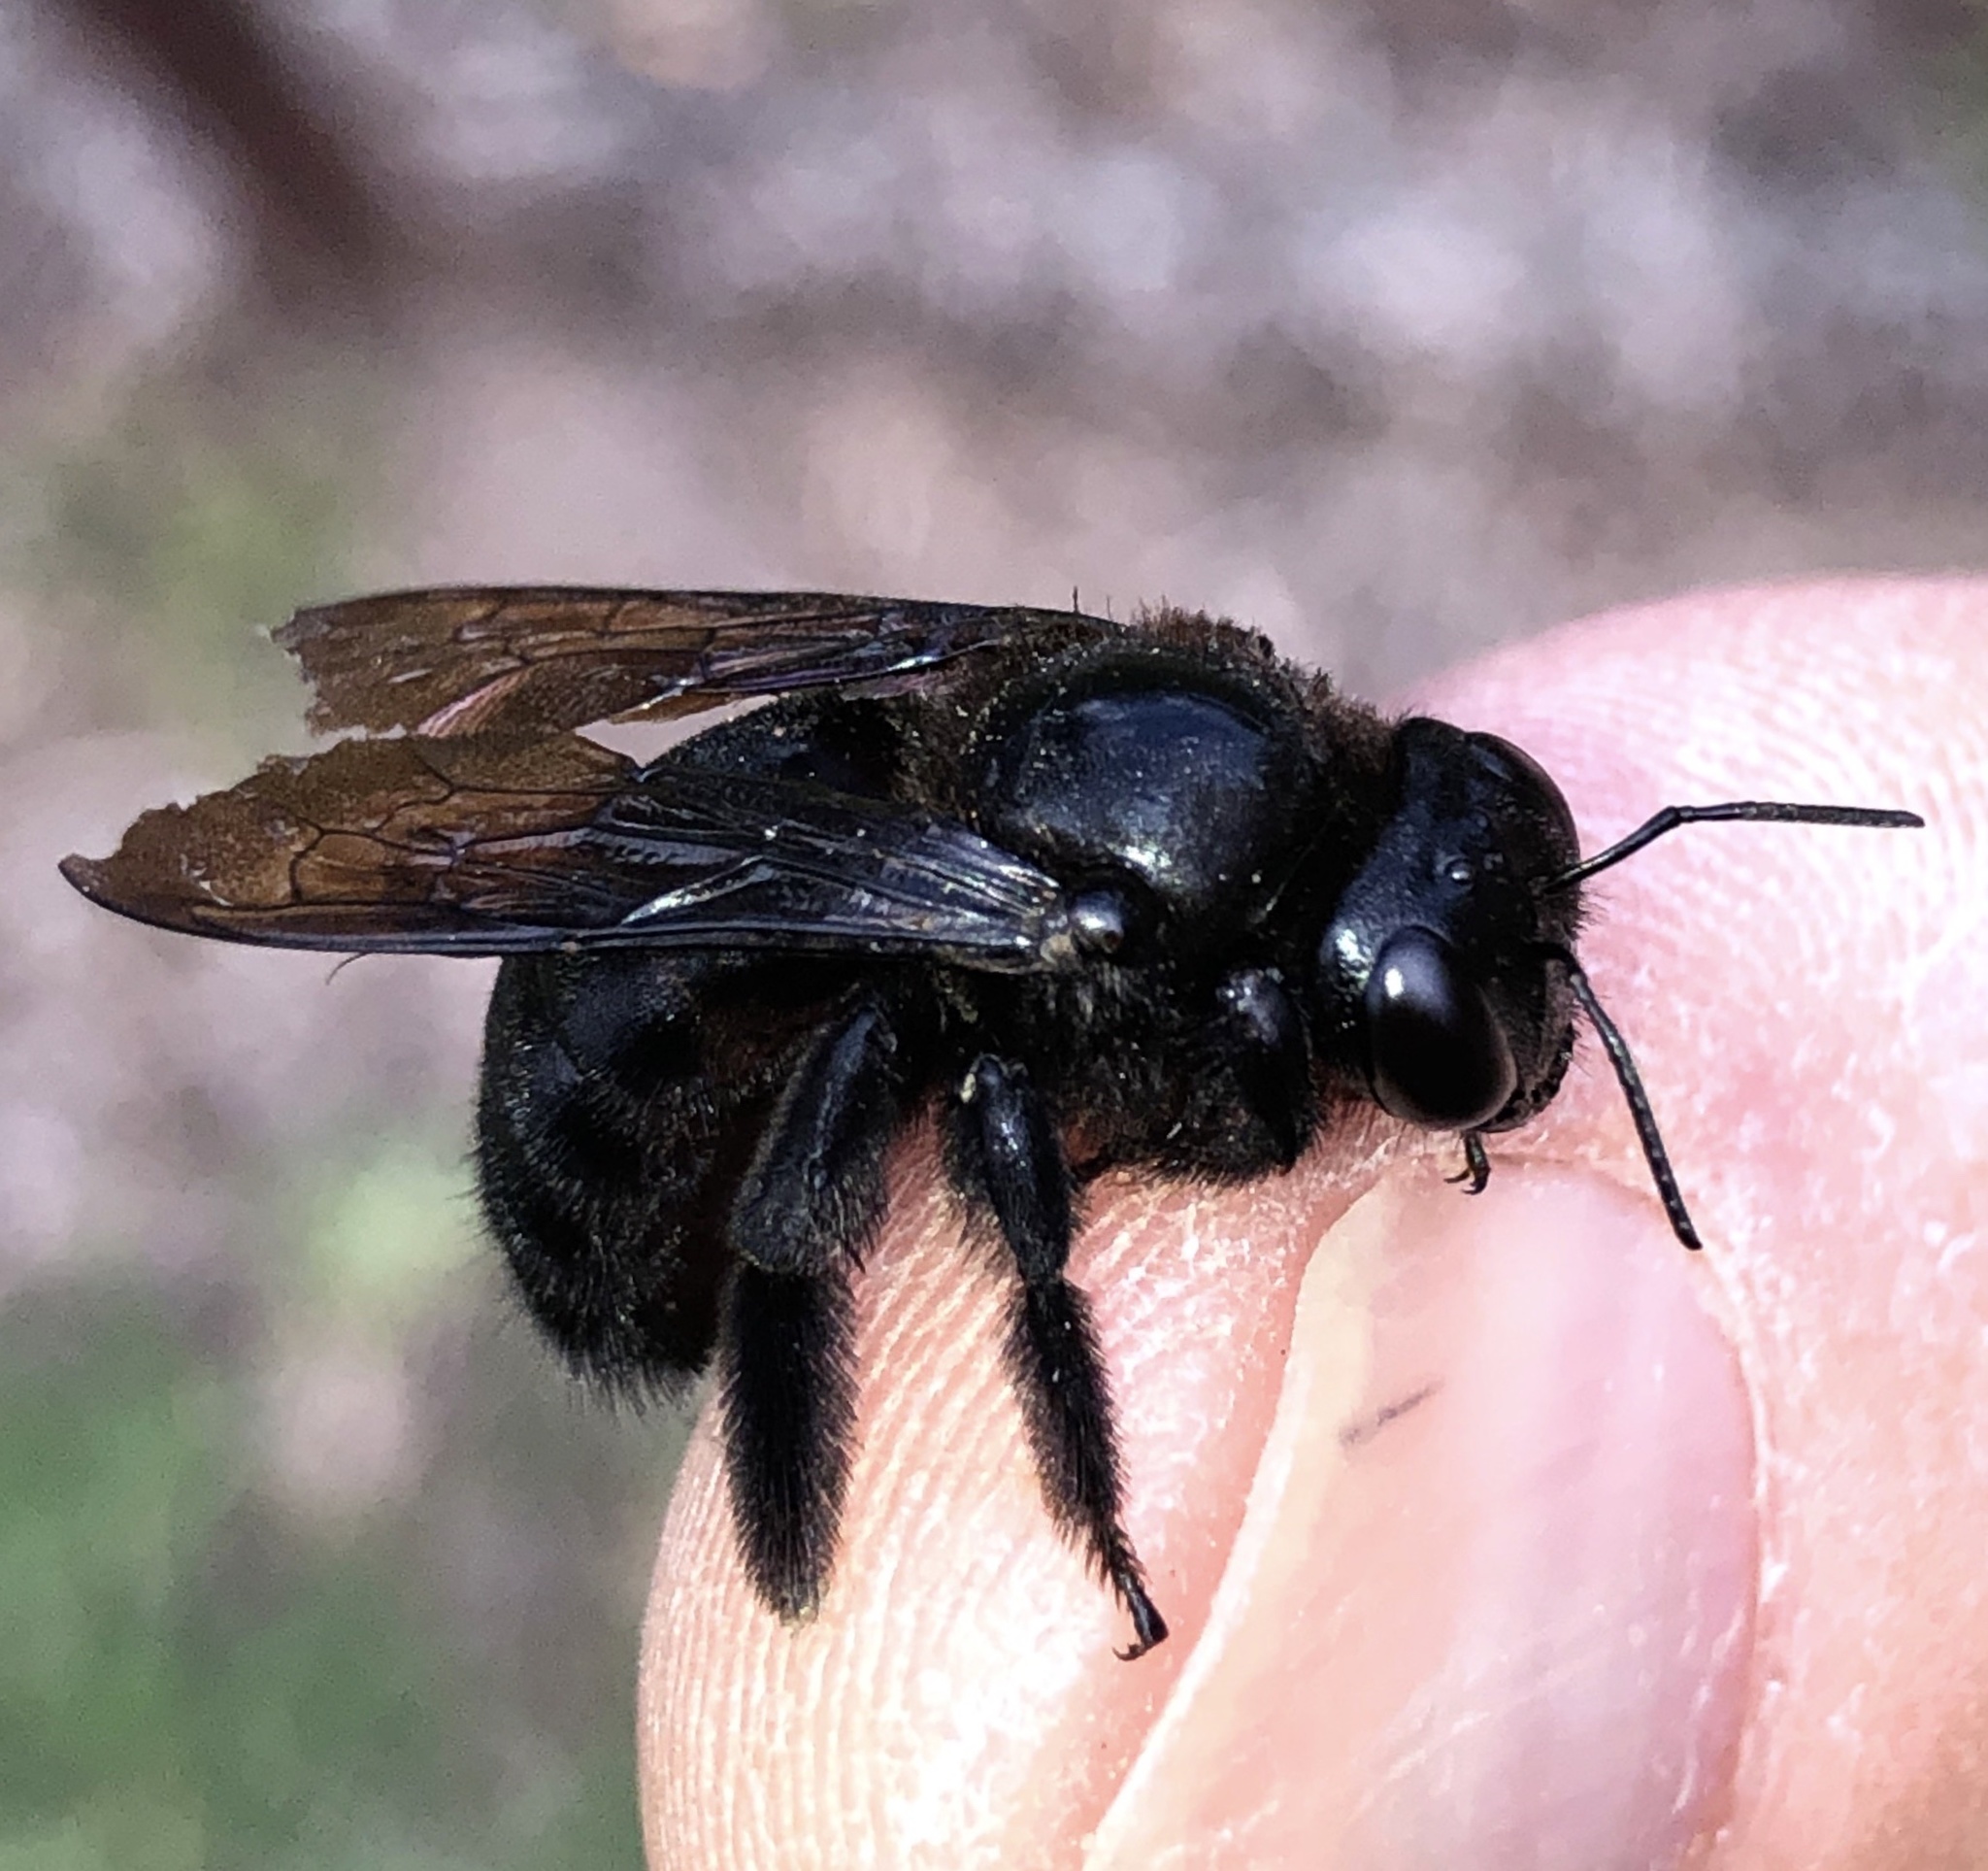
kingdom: Animalia
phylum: Arthropoda
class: Insecta
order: Hymenoptera
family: Apidae
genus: Xylocopa
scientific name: Xylocopa strandi
